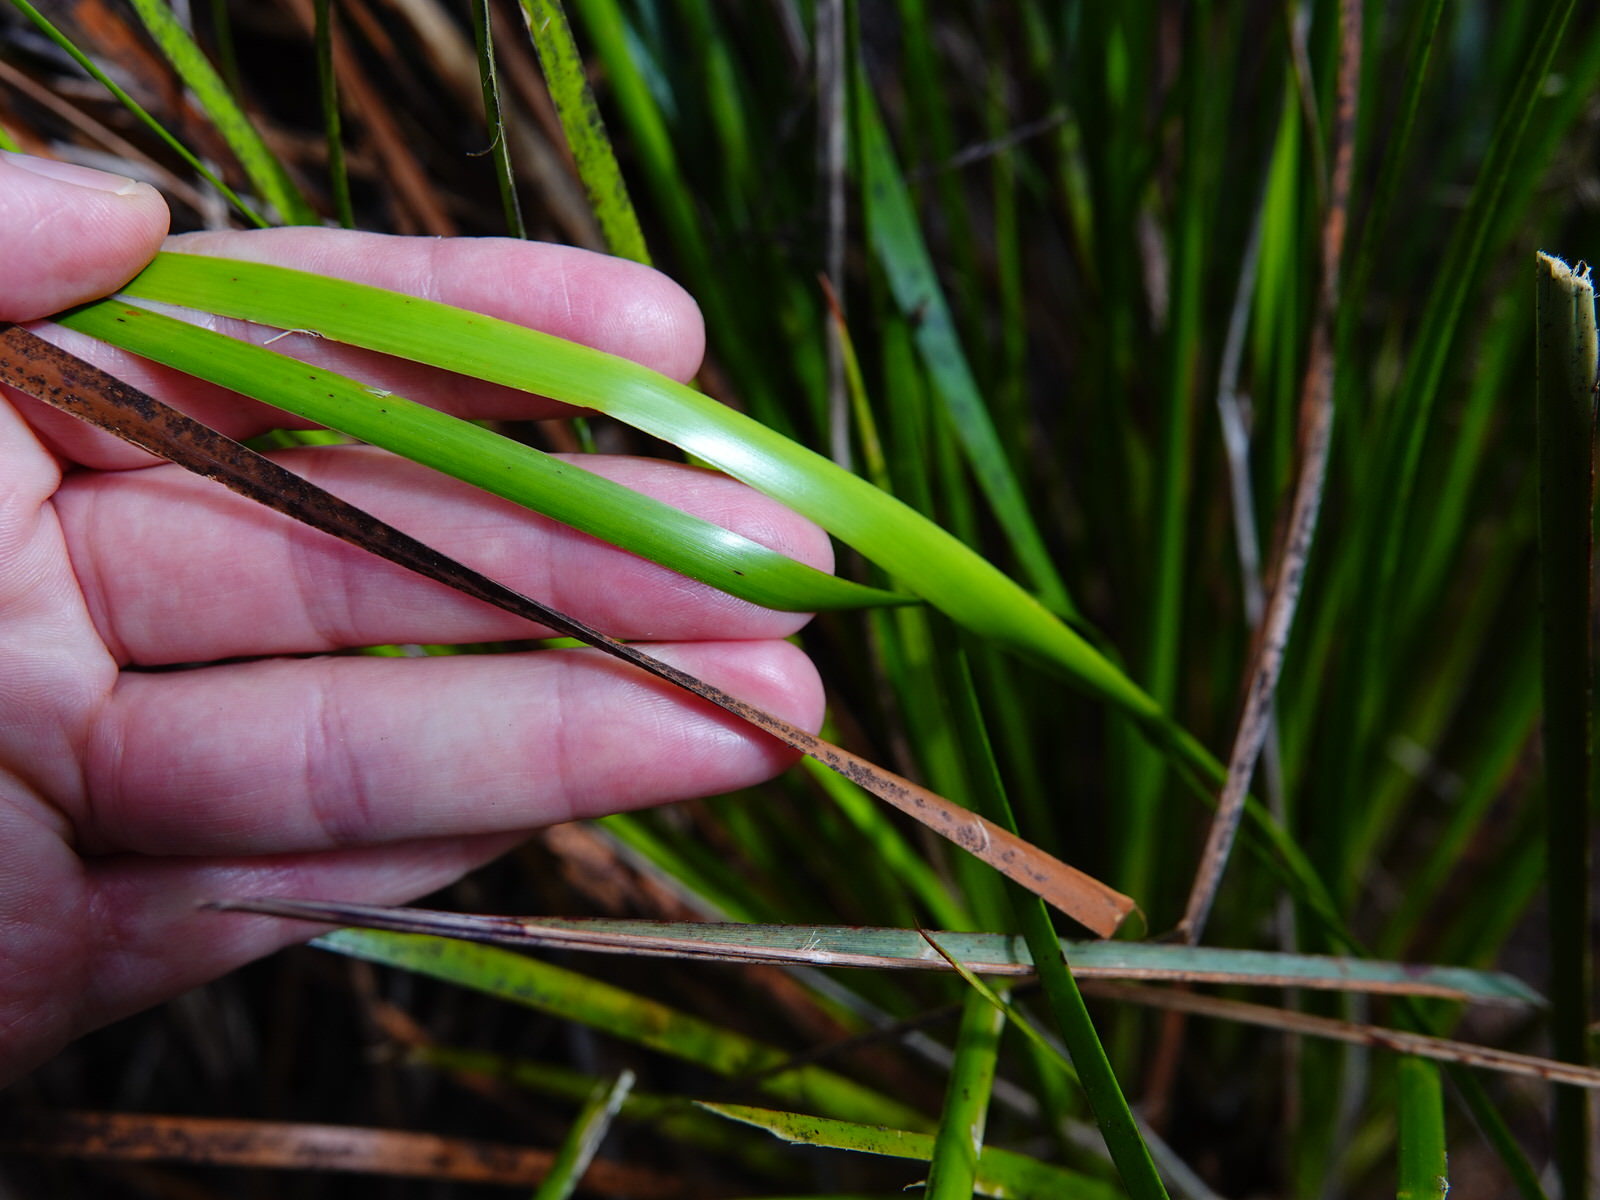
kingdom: Plantae
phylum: Tracheophyta
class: Liliopsida
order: Poales
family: Cyperaceae
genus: Lepidosperma
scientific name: Lepidosperma laterale
